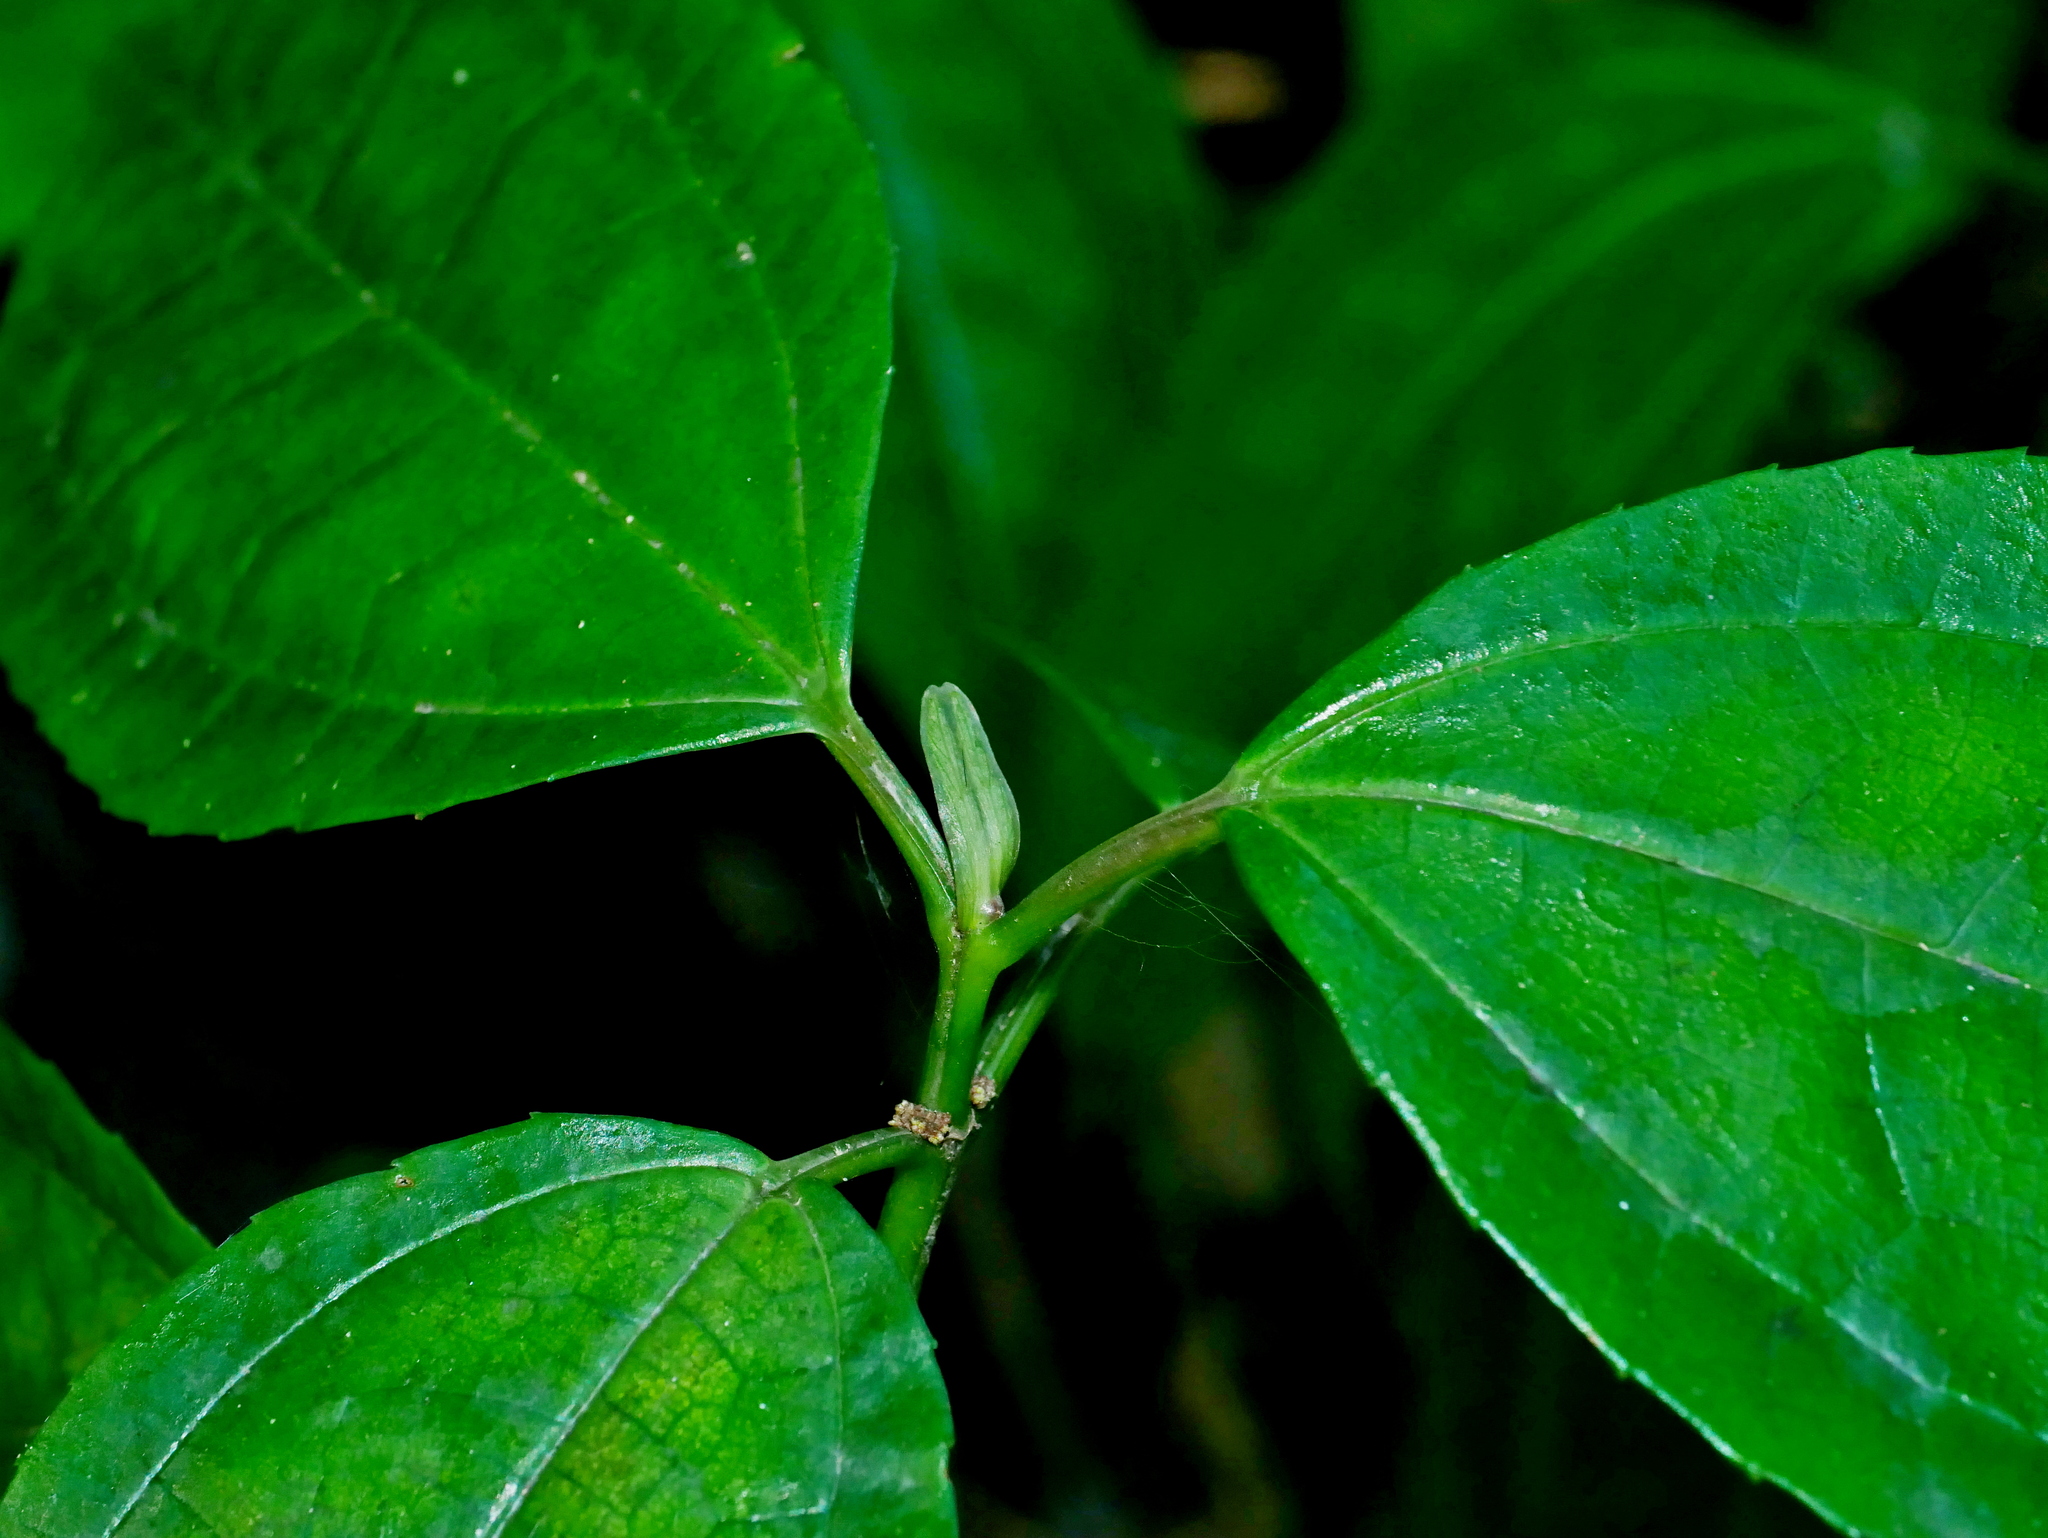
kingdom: Plantae
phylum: Tracheophyta
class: Magnoliopsida
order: Rosales
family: Urticaceae
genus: Pilea
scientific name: Pilea funkikensis
